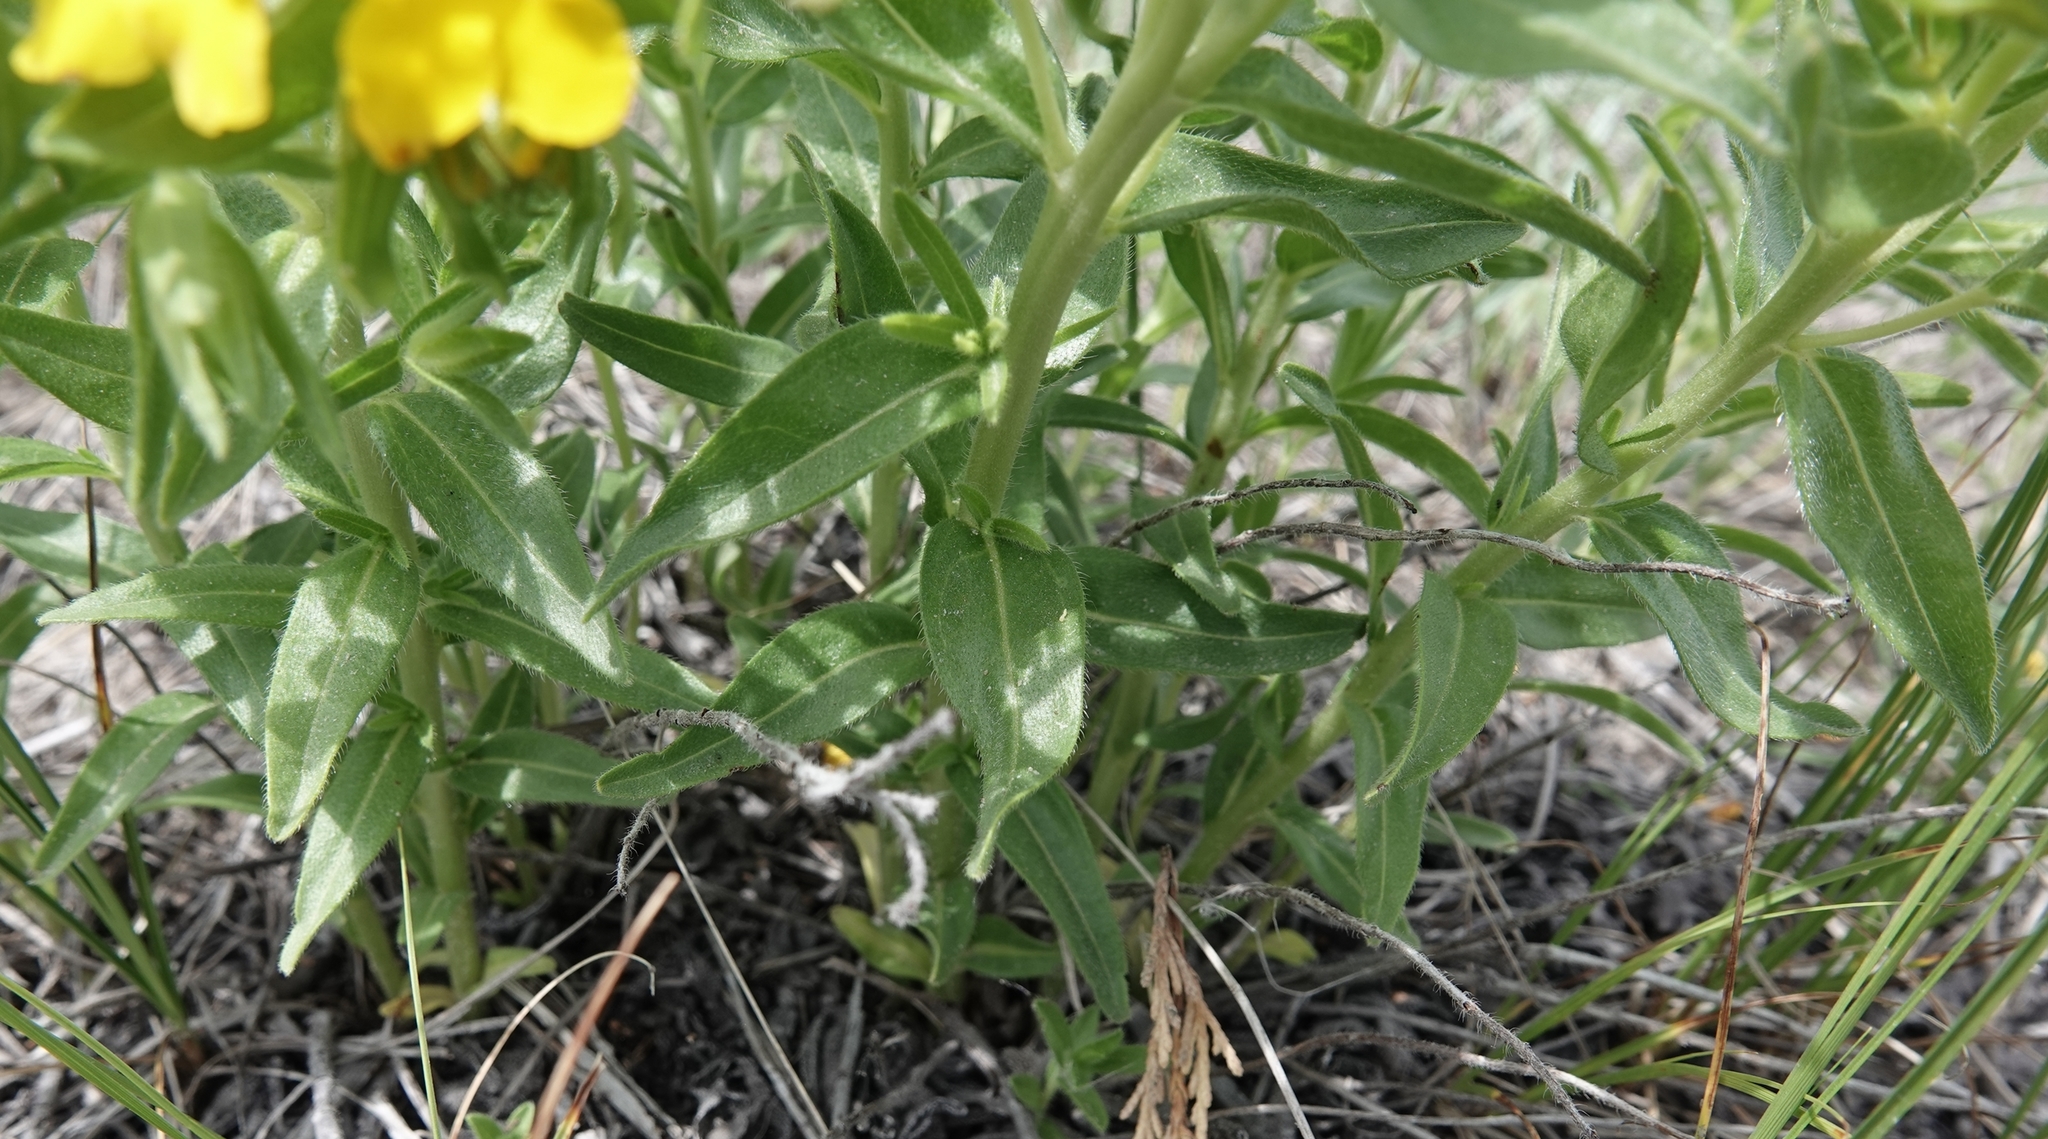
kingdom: Plantae
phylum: Tracheophyta
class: Magnoliopsida
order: Boraginales
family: Boraginaceae
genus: Lithospermum
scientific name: Lithospermum caroliniense
